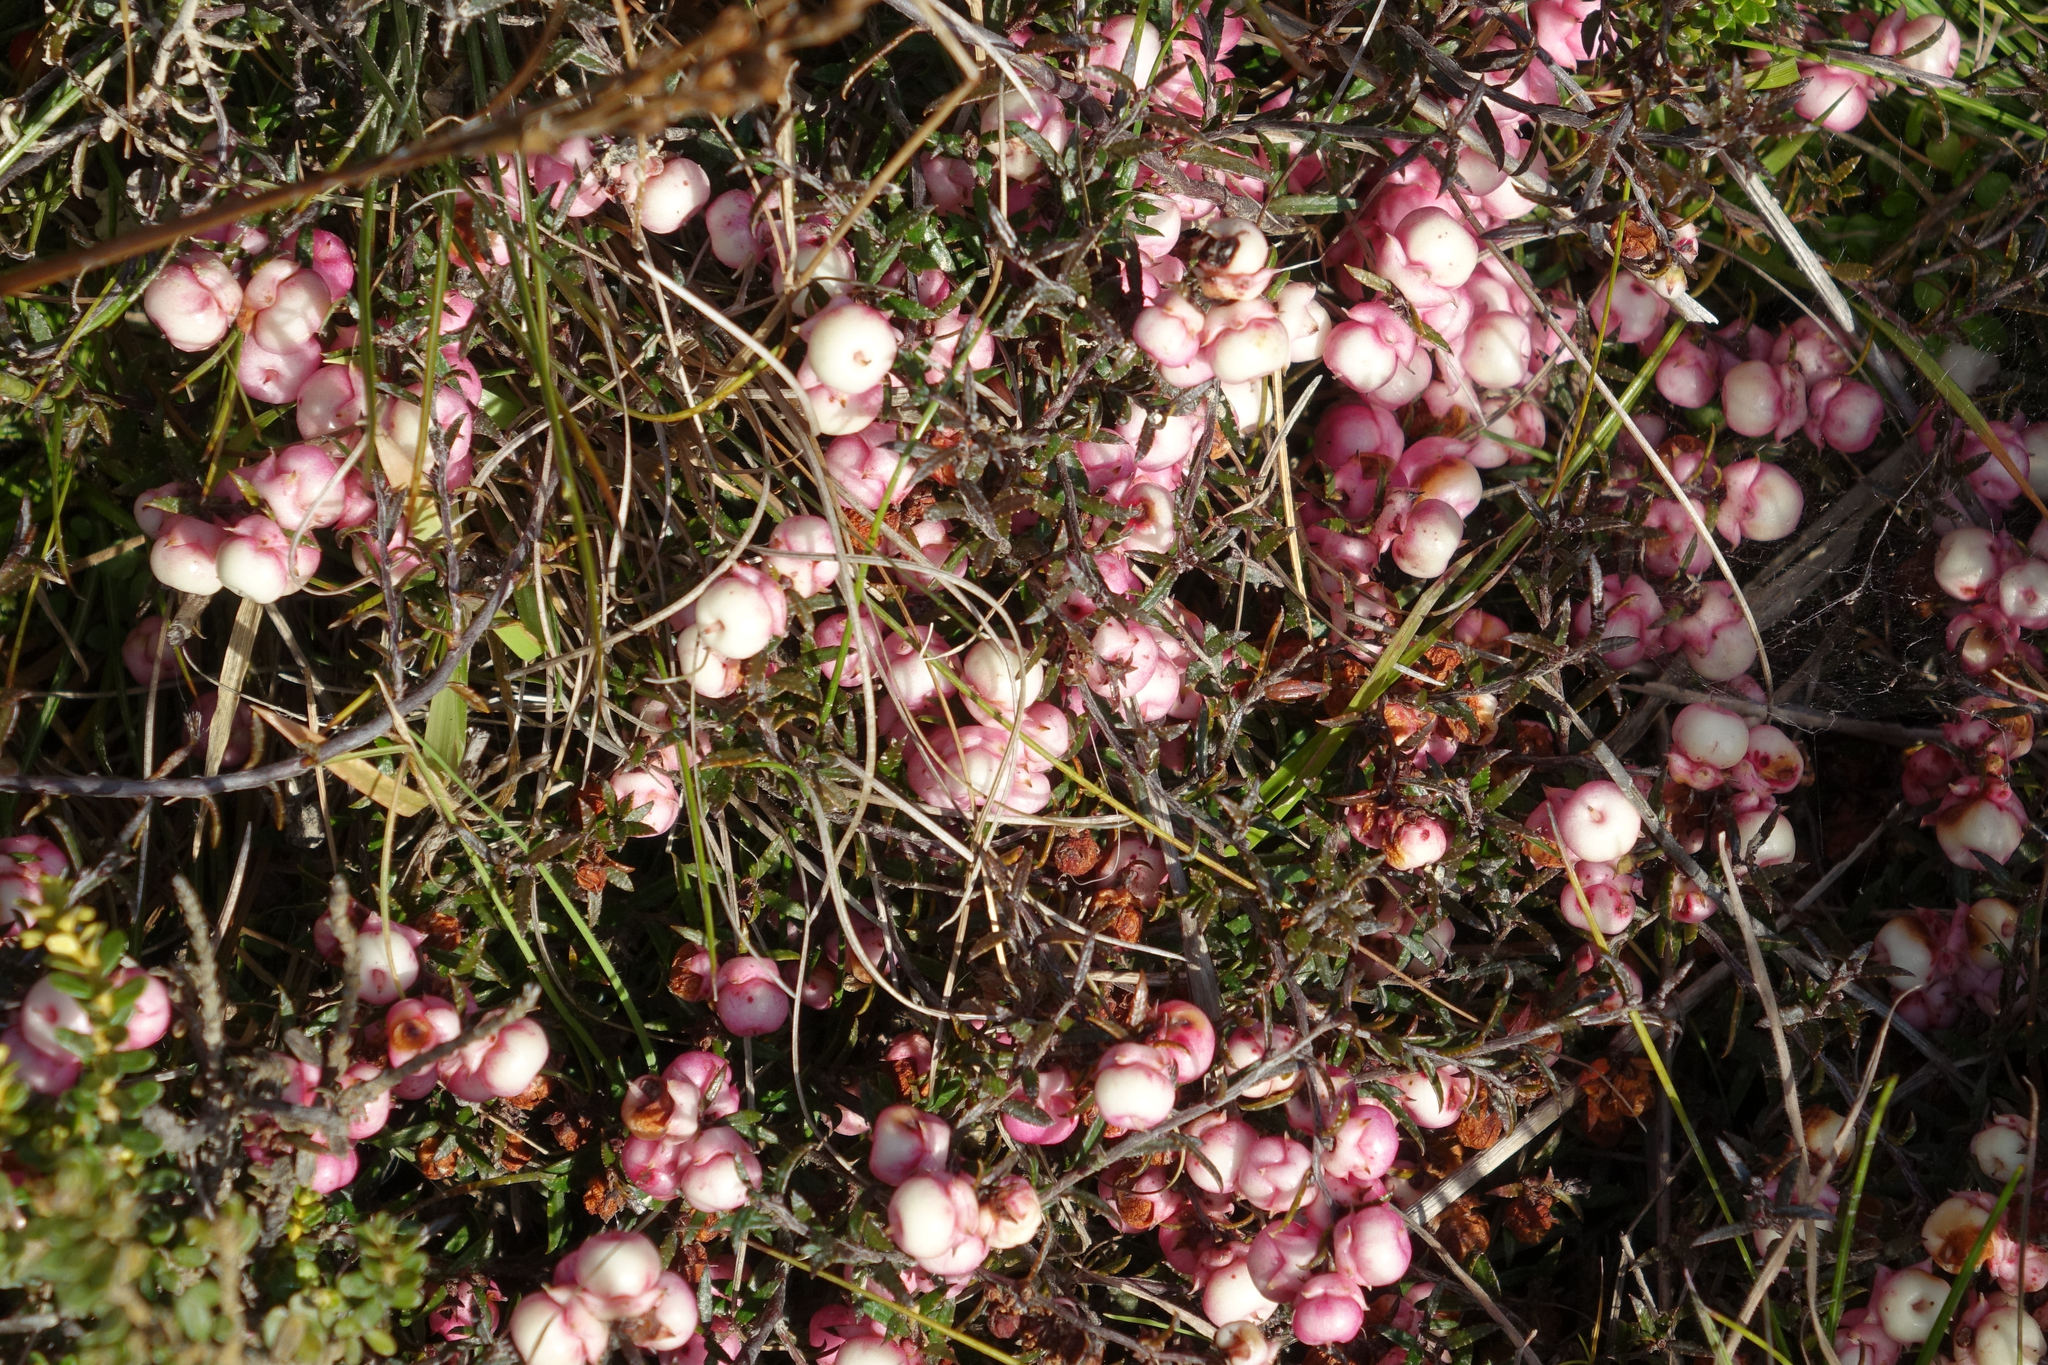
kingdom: Plantae
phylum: Tracheophyta
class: Magnoliopsida
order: Ericales
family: Ericaceae
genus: Gaultheria
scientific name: Gaultheria macrostigma
